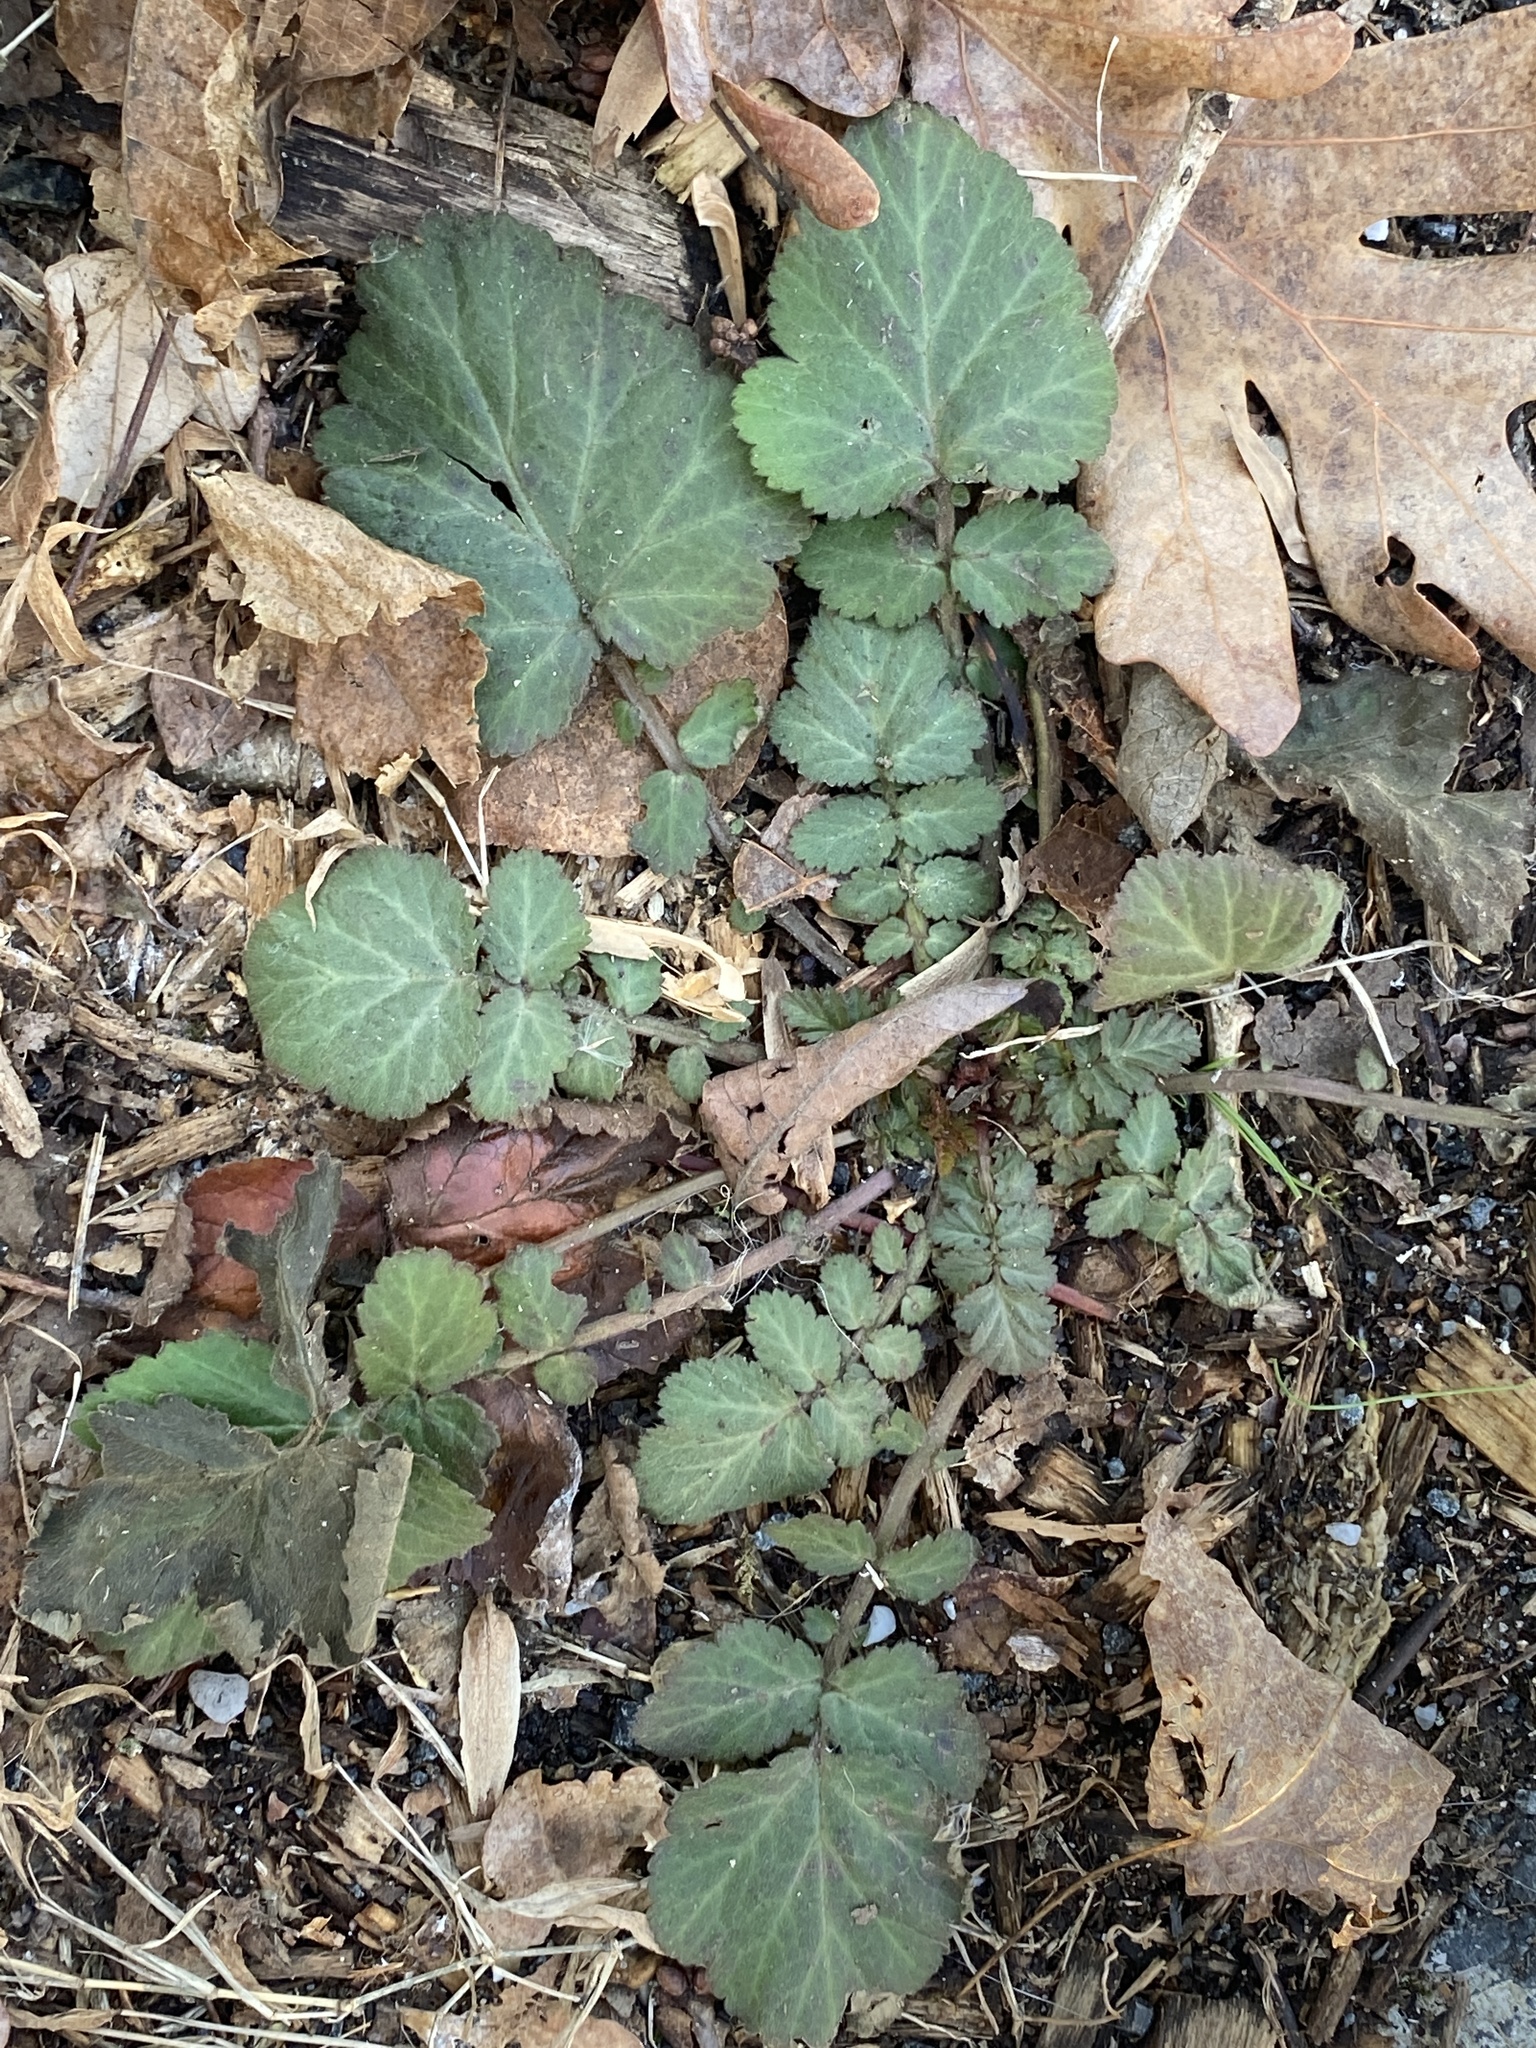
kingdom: Plantae
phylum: Tracheophyta
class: Magnoliopsida
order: Rosales
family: Rosaceae
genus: Geum
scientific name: Geum canadense
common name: White avens
